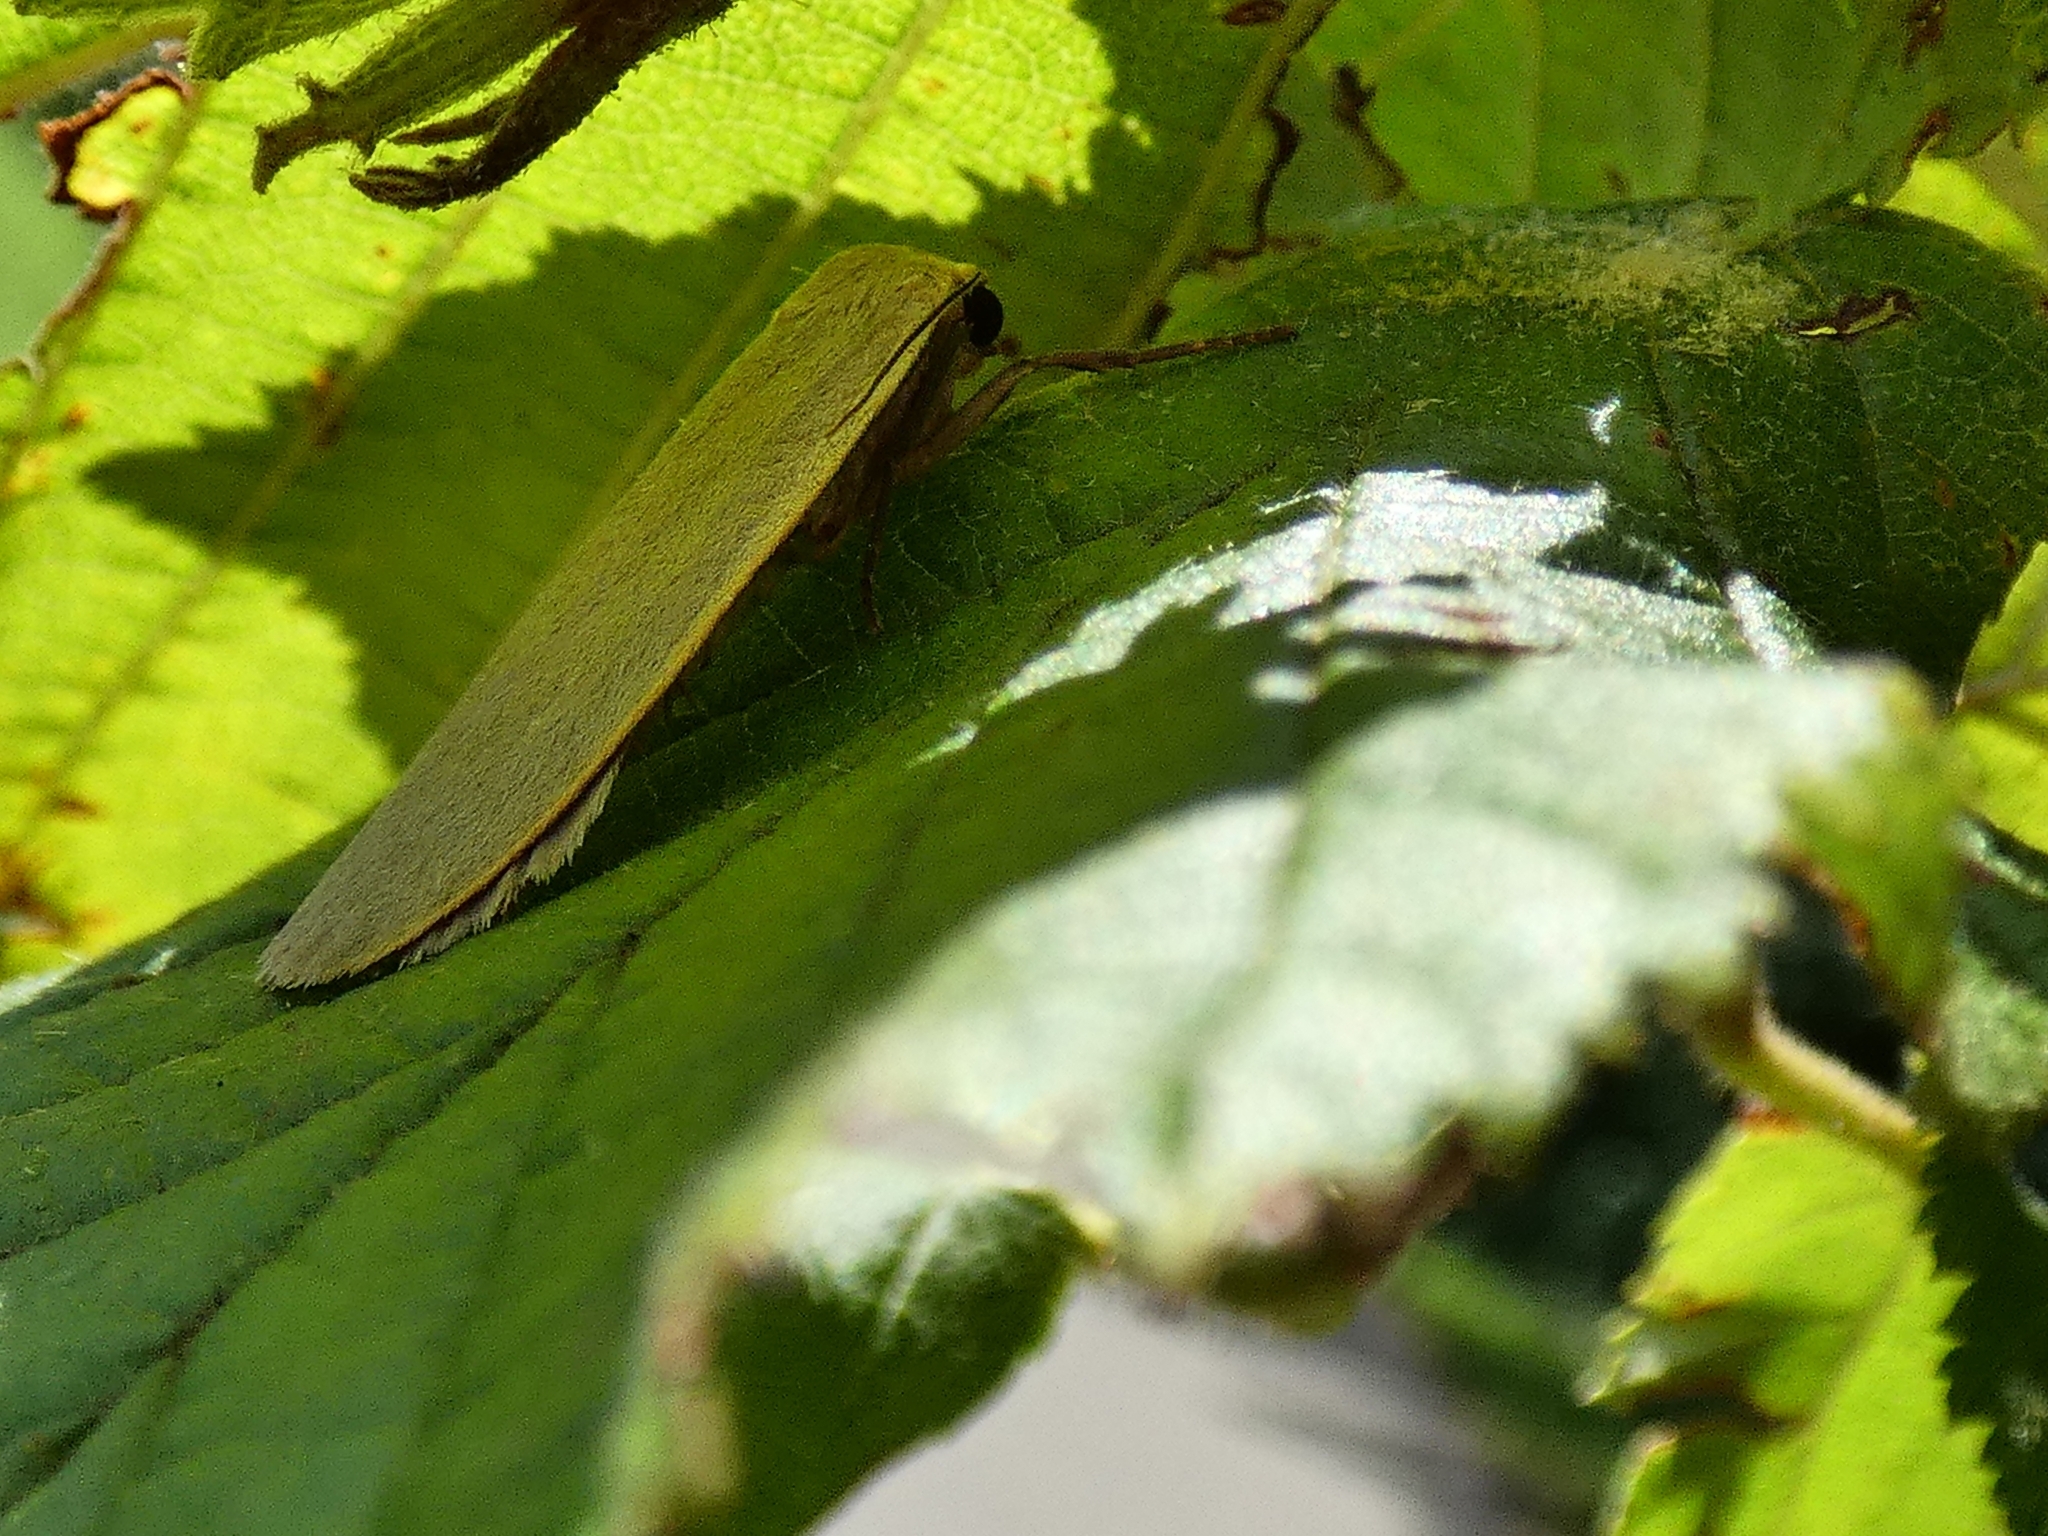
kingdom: Animalia
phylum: Arthropoda
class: Insecta
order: Lepidoptera
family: Erebidae
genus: Collita
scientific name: Collita griseola
